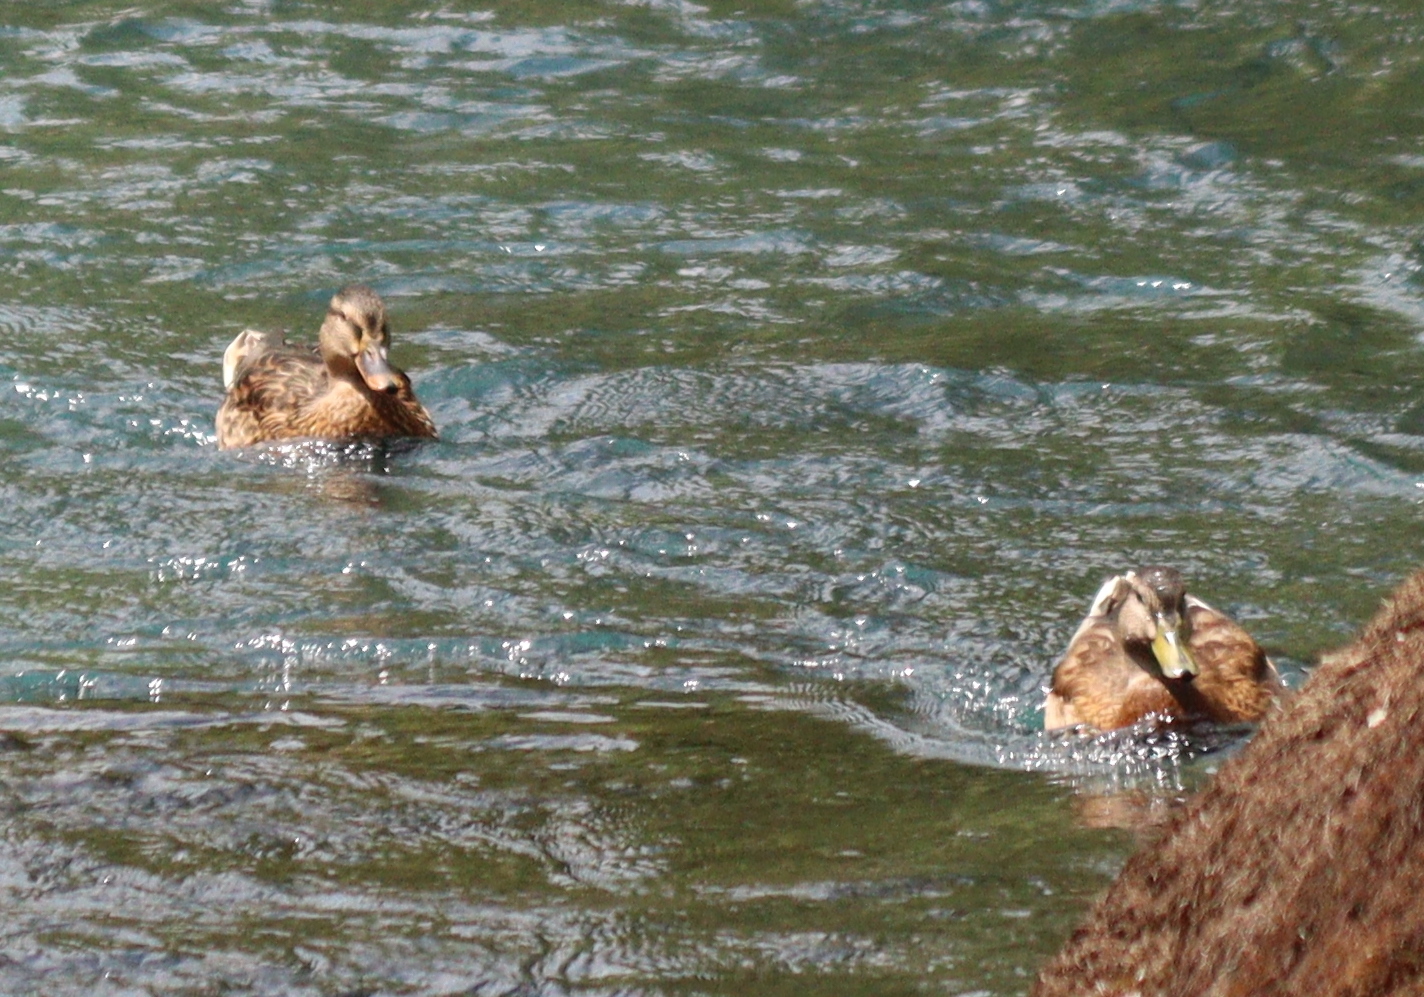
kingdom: Animalia
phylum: Chordata
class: Aves
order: Anseriformes
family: Anatidae
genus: Anas
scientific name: Anas platyrhynchos
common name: Mallard
